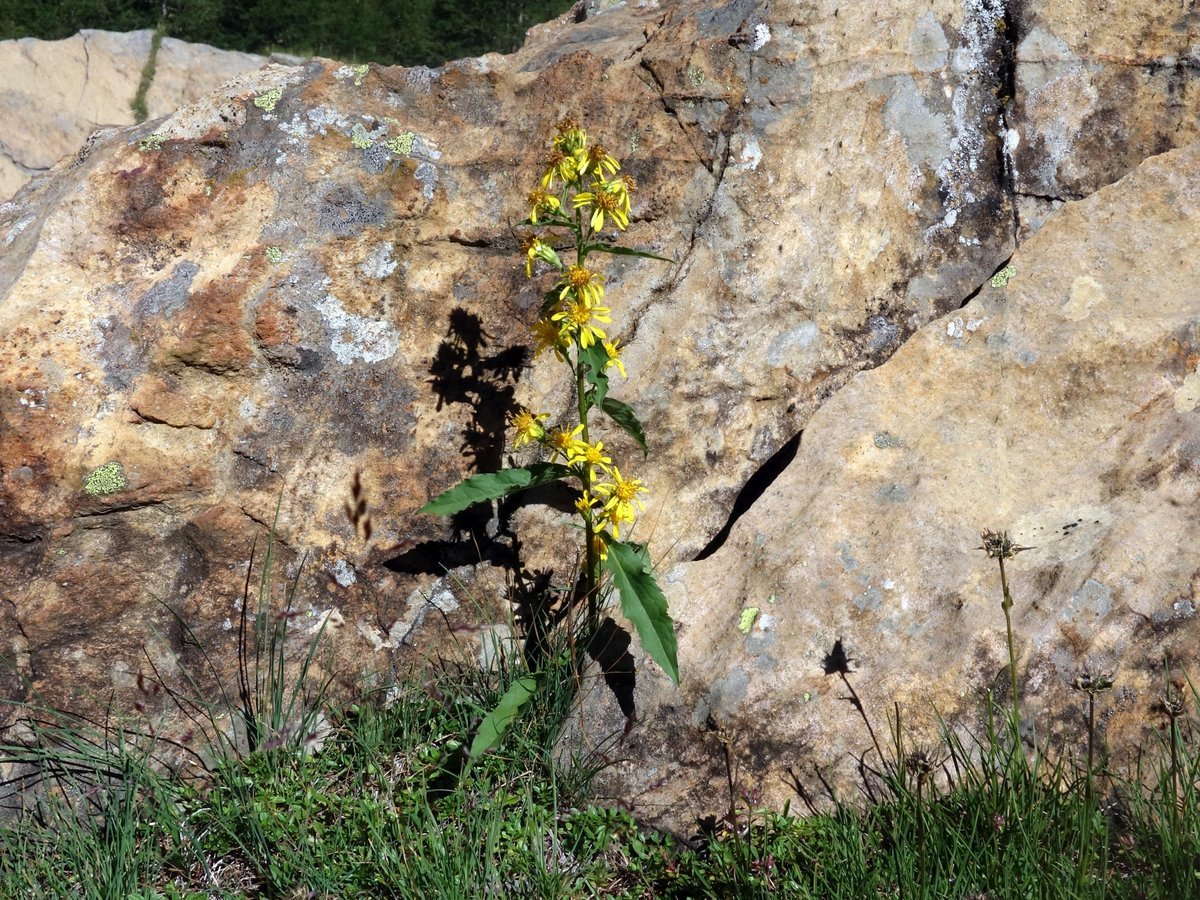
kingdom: Plantae
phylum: Tracheophyta
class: Magnoliopsida
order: Asterales
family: Asteraceae
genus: Solidago
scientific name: Solidago virgaurea
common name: Goldenrod
